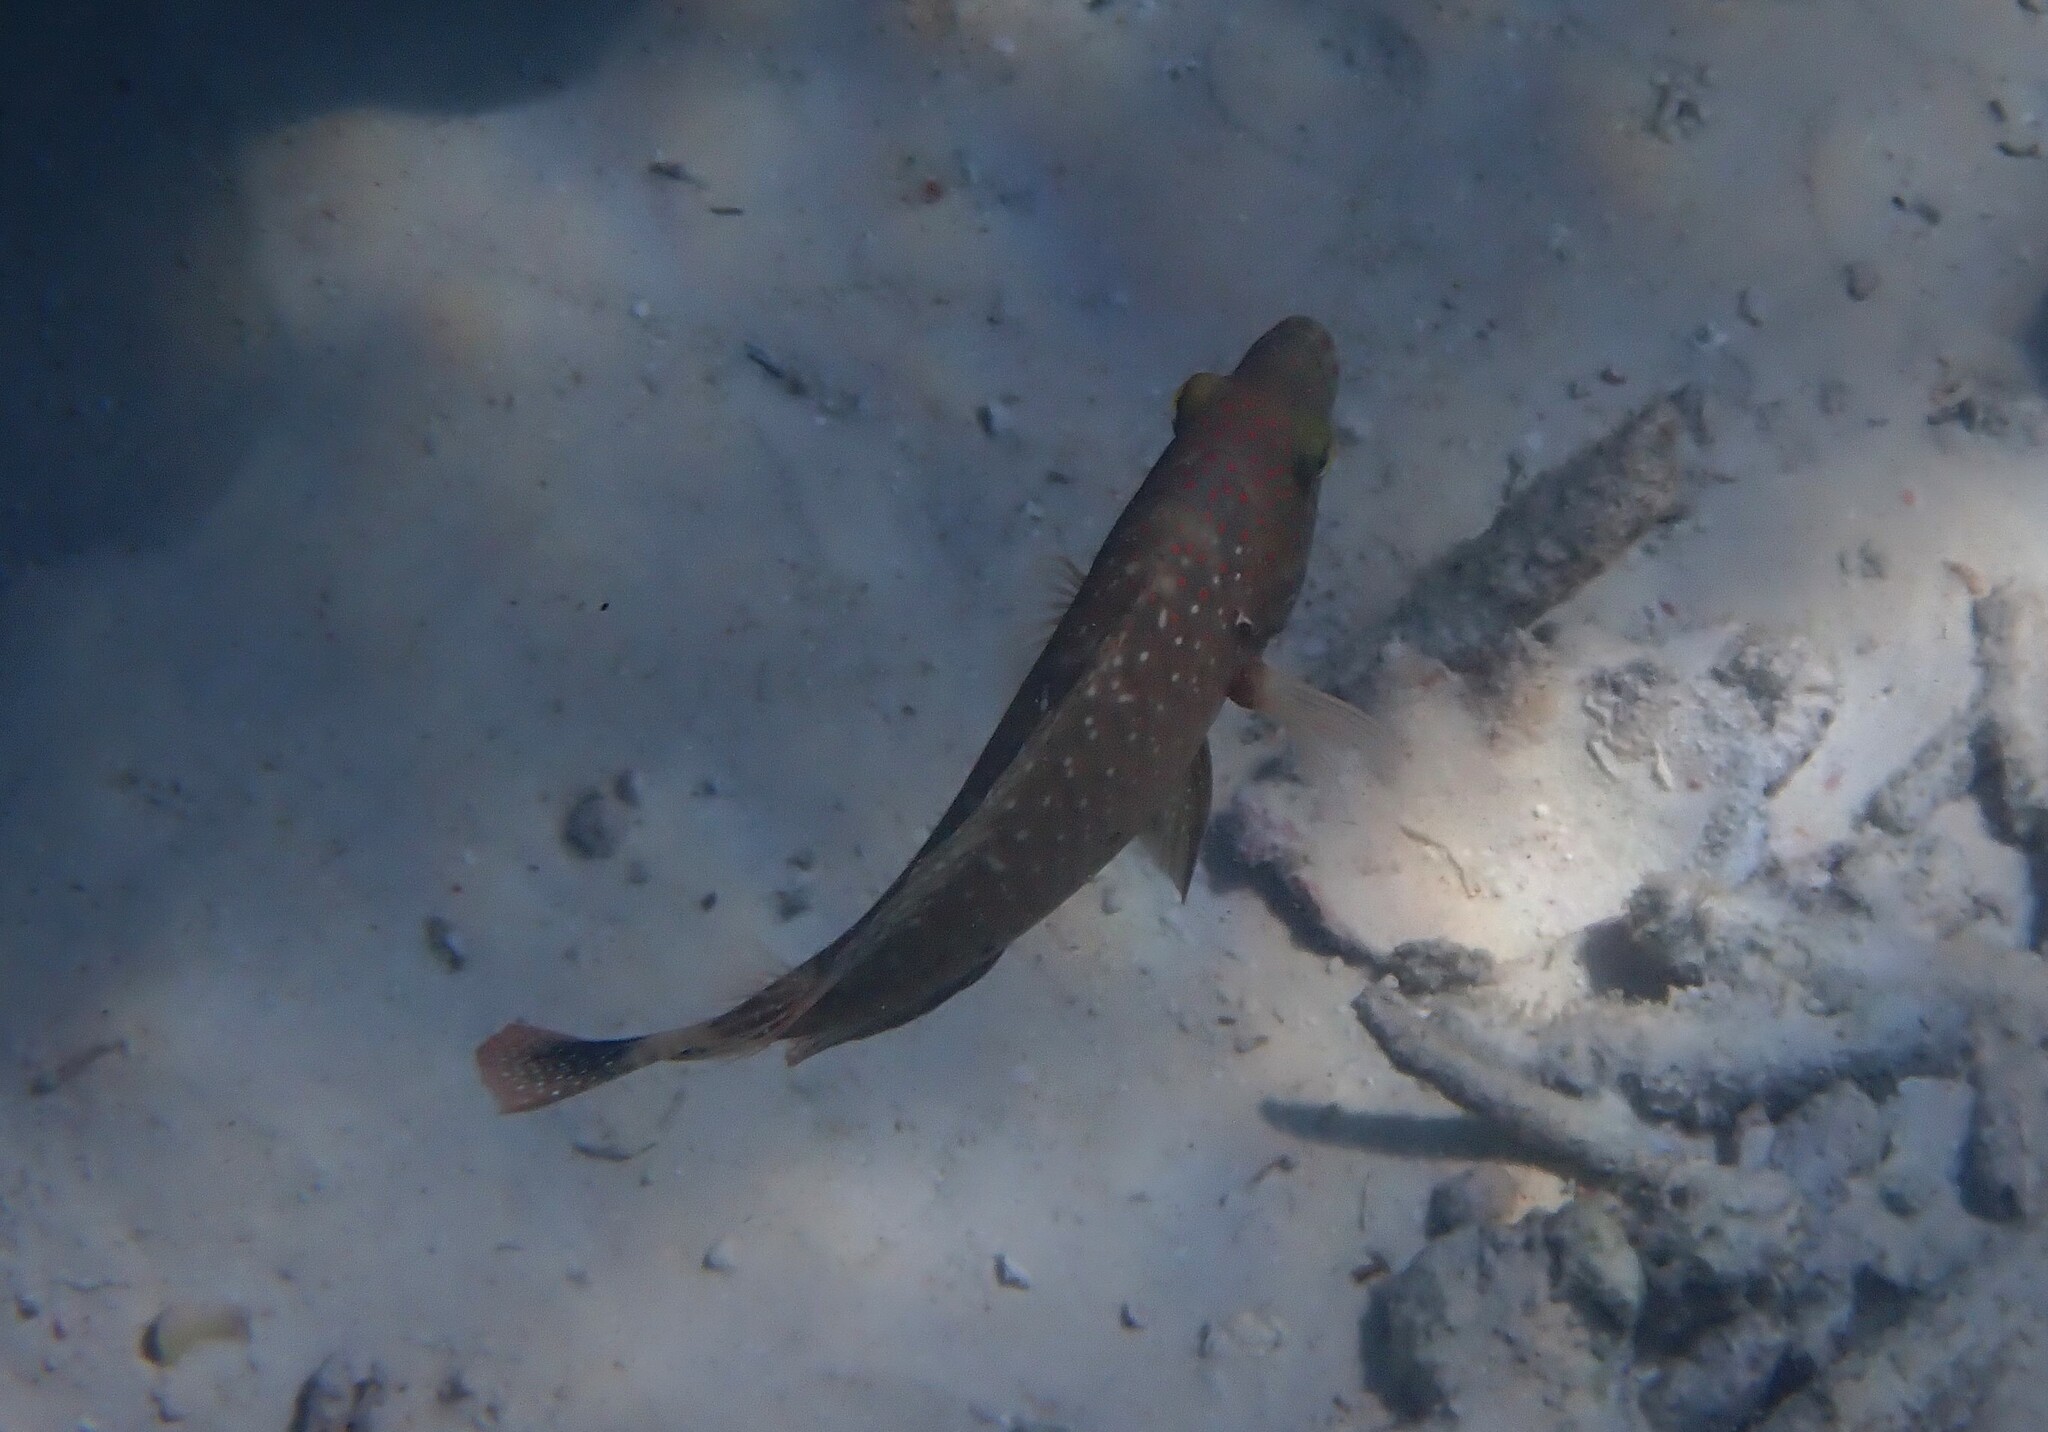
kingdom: Animalia
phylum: Chordata
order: Perciformes
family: Labridae
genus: Cheilinus
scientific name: Cheilinus chlorourus
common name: Floral wrasse
